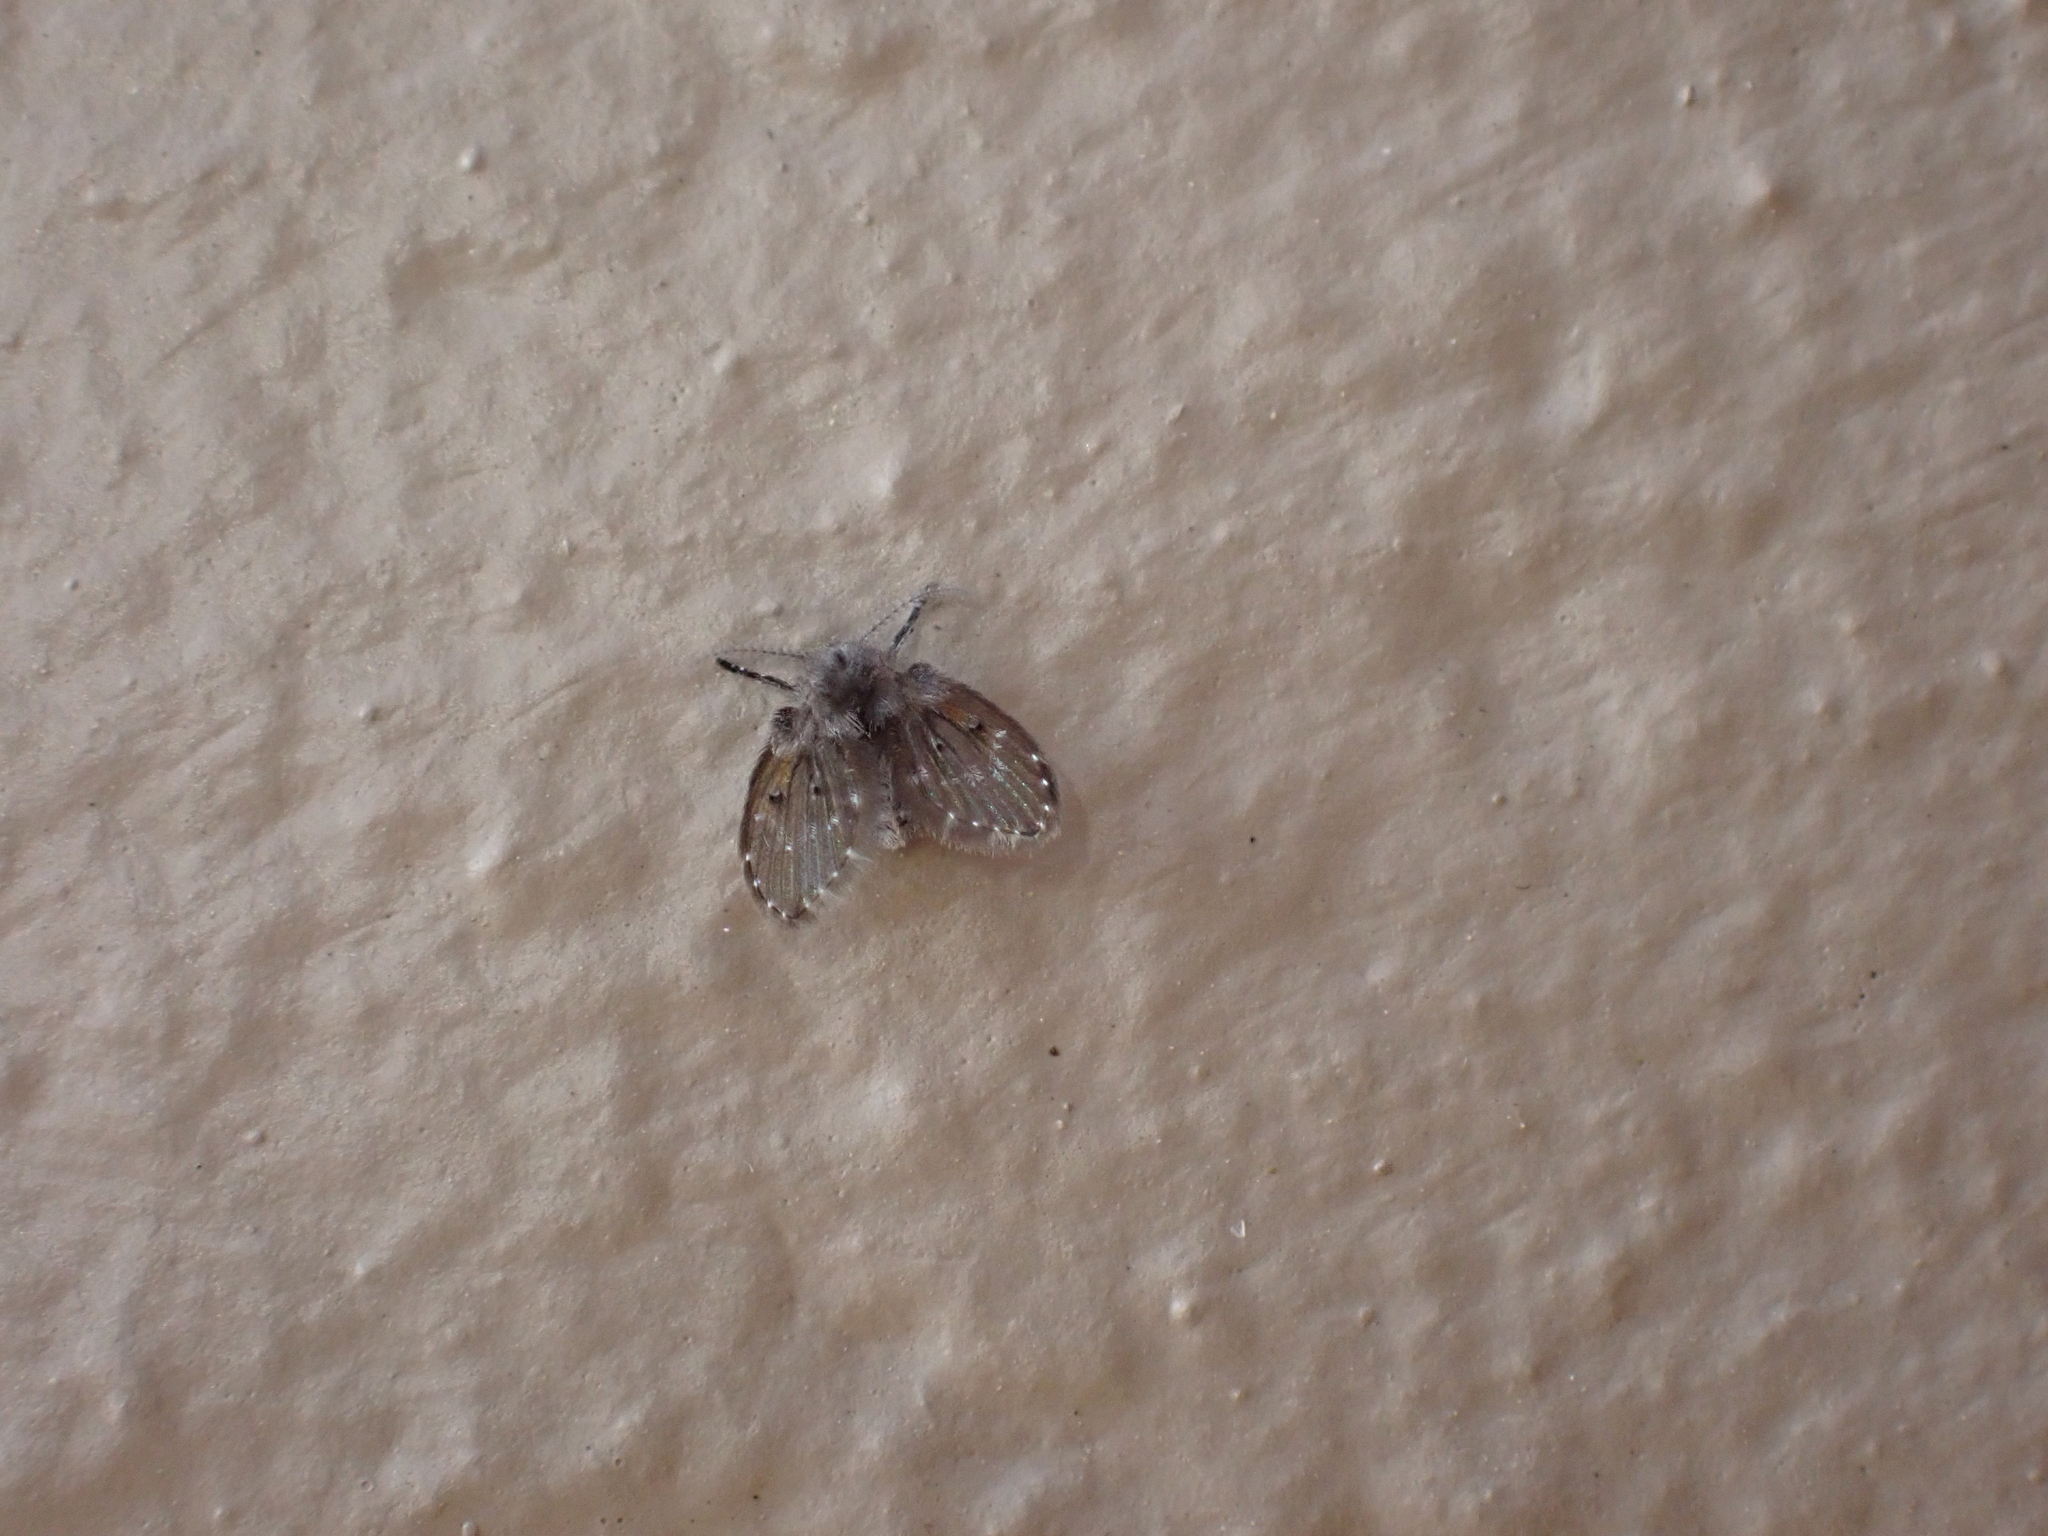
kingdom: Animalia
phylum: Arthropoda
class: Insecta
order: Diptera
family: Psychodidae
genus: Clogmia
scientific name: Clogmia albipunctatus
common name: White-spotted moth fly
